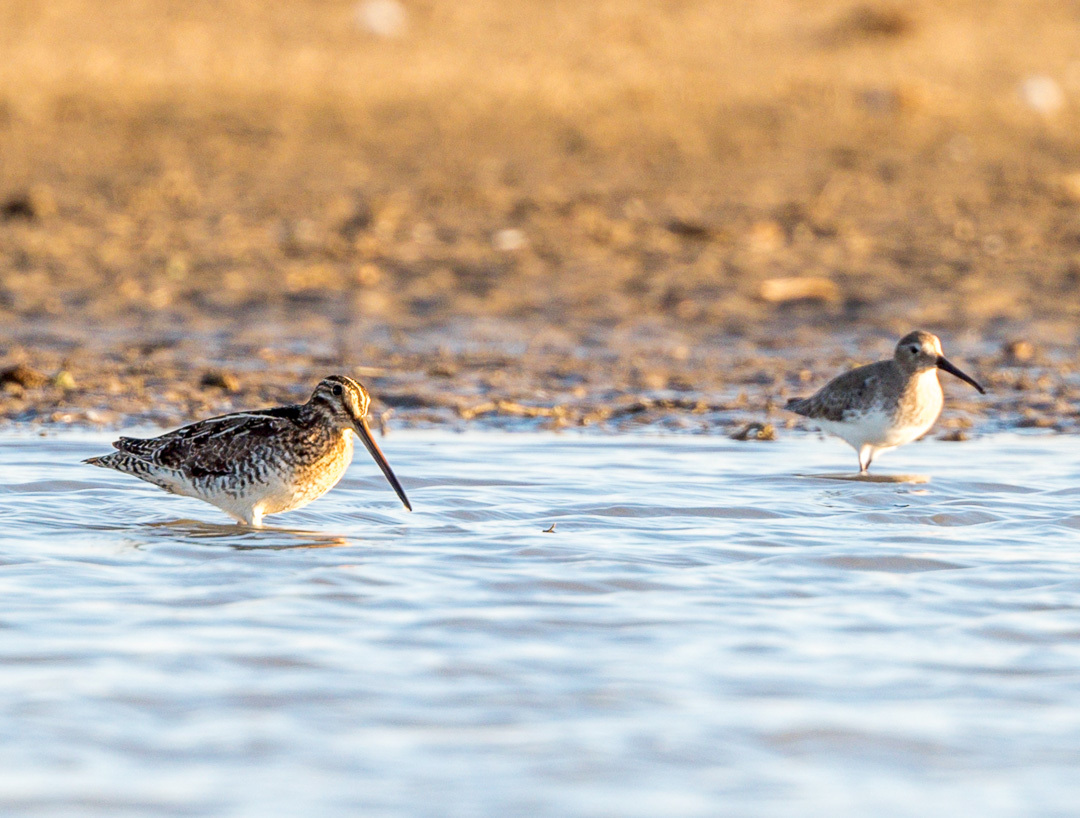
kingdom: Animalia
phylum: Chordata
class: Aves
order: Charadriiformes
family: Scolopacidae
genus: Gallinago
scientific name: Gallinago delicata
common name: Wilson's snipe
